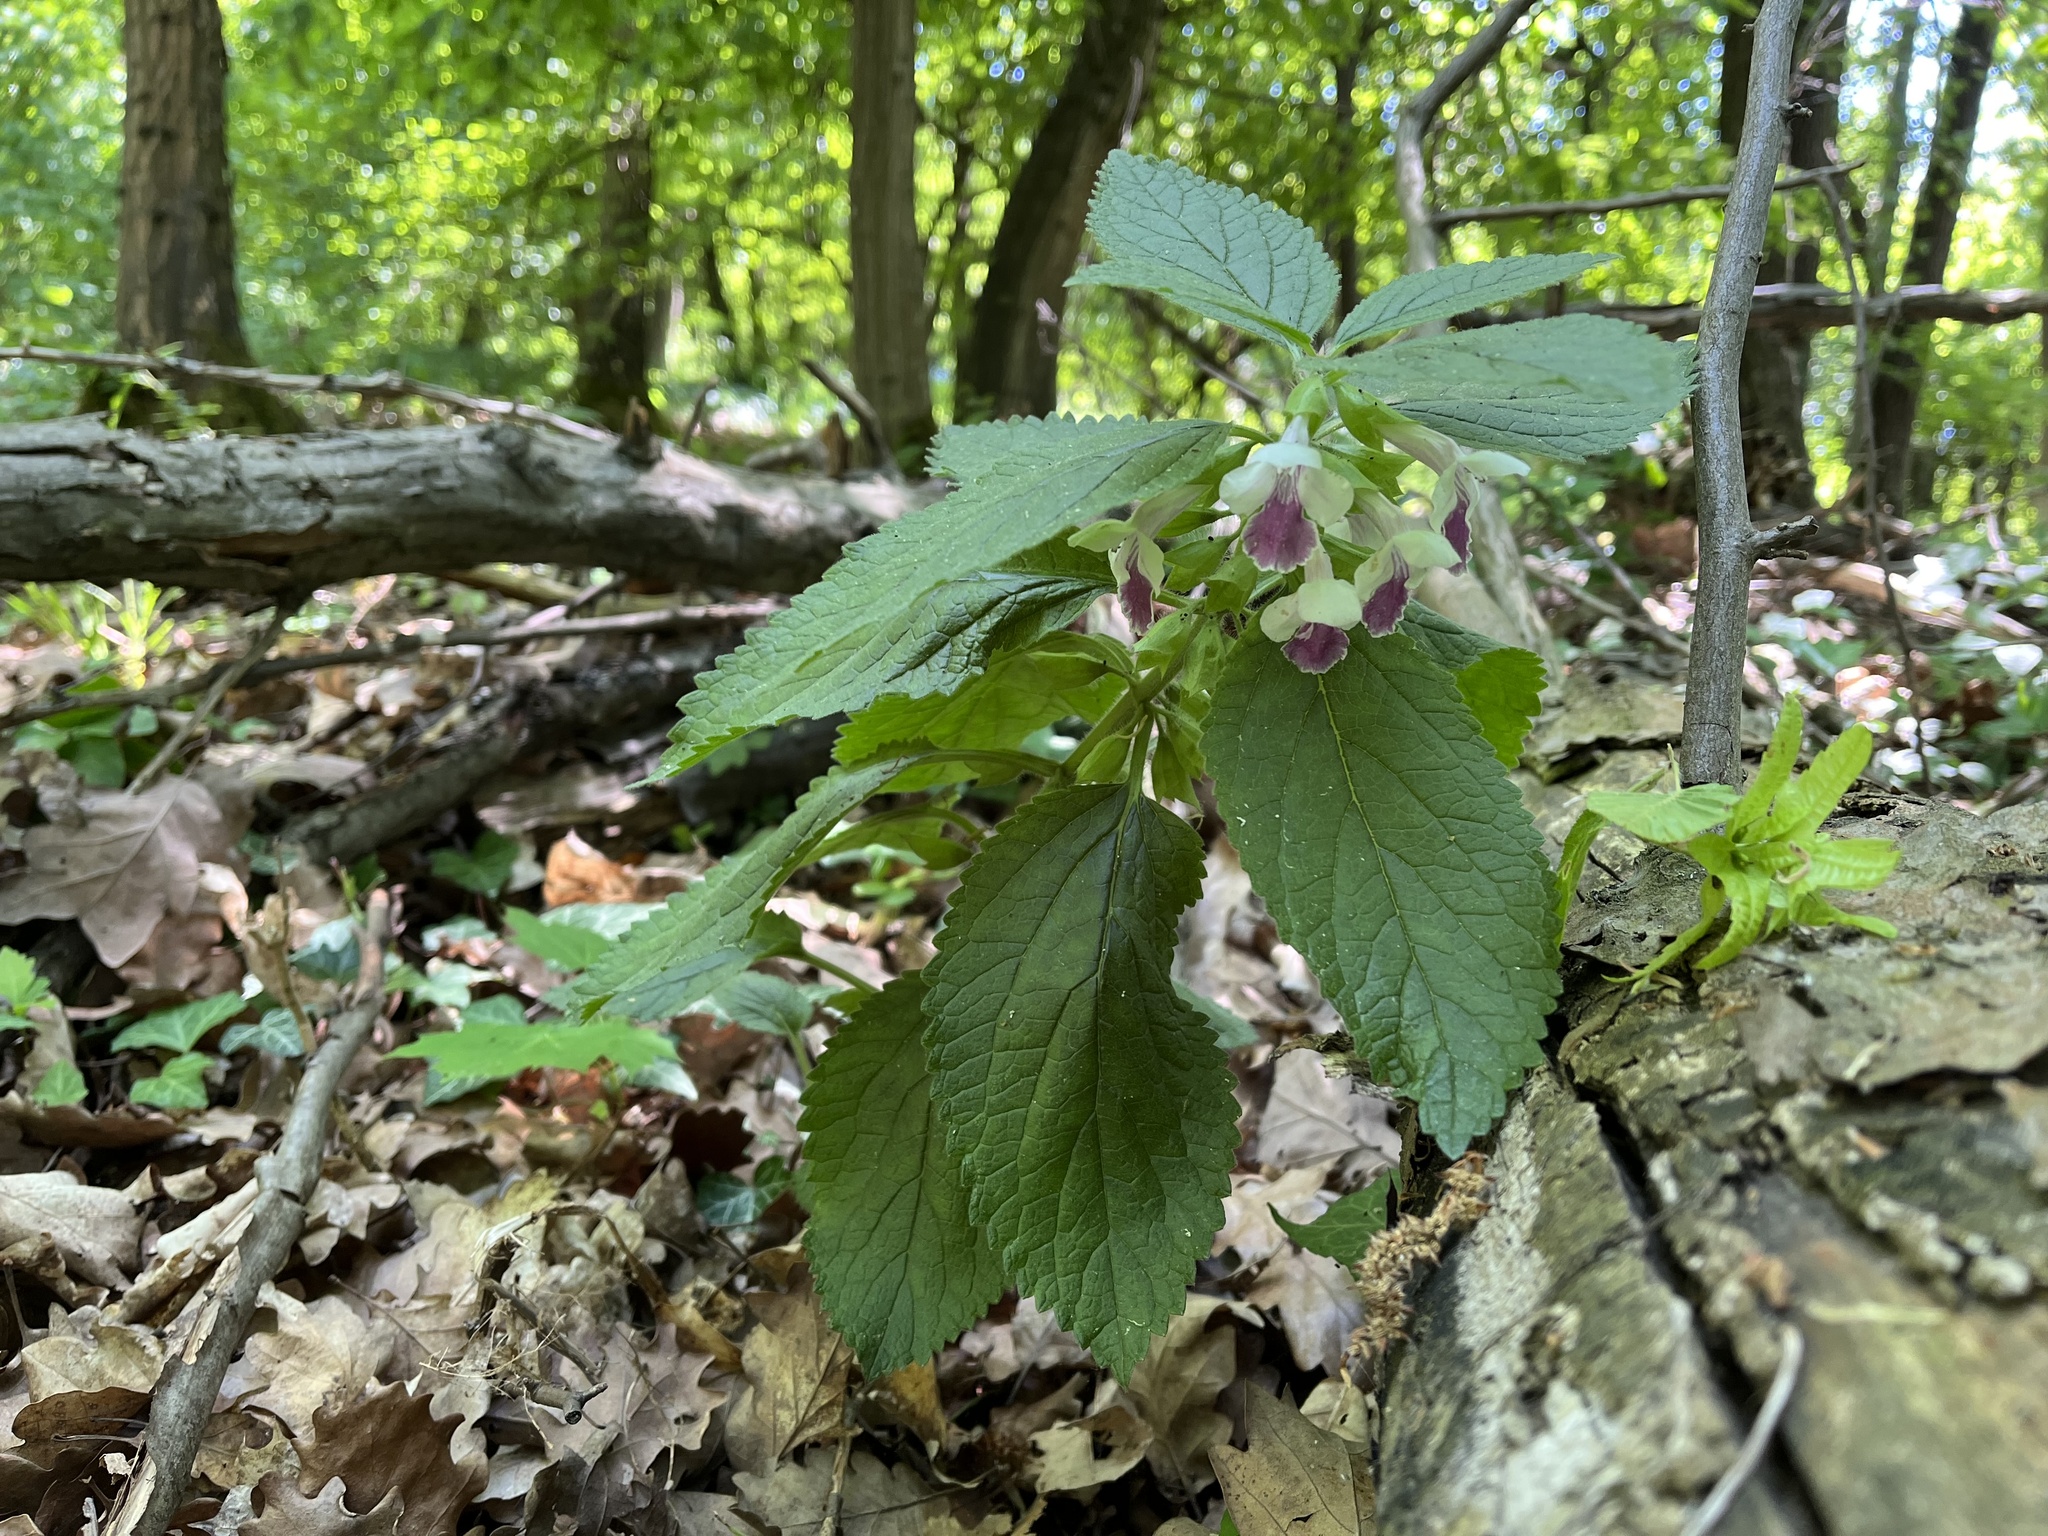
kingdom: Plantae
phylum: Tracheophyta
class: Magnoliopsida
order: Lamiales
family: Lamiaceae
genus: Melittis
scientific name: Melittis melissophyllum
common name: Bastard balm
